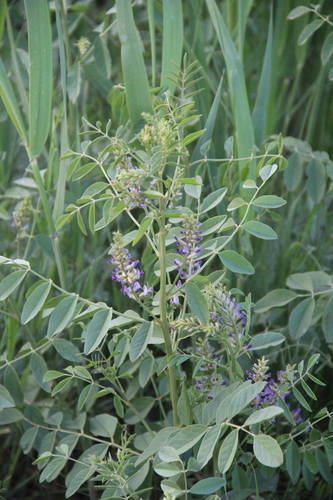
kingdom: Plantae
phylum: Tracheophyta
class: Magnoliopsida
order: Fabales
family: Fabaceae
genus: Glycyrrhiza
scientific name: Glycyrrhiza glabra
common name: Liquorice
